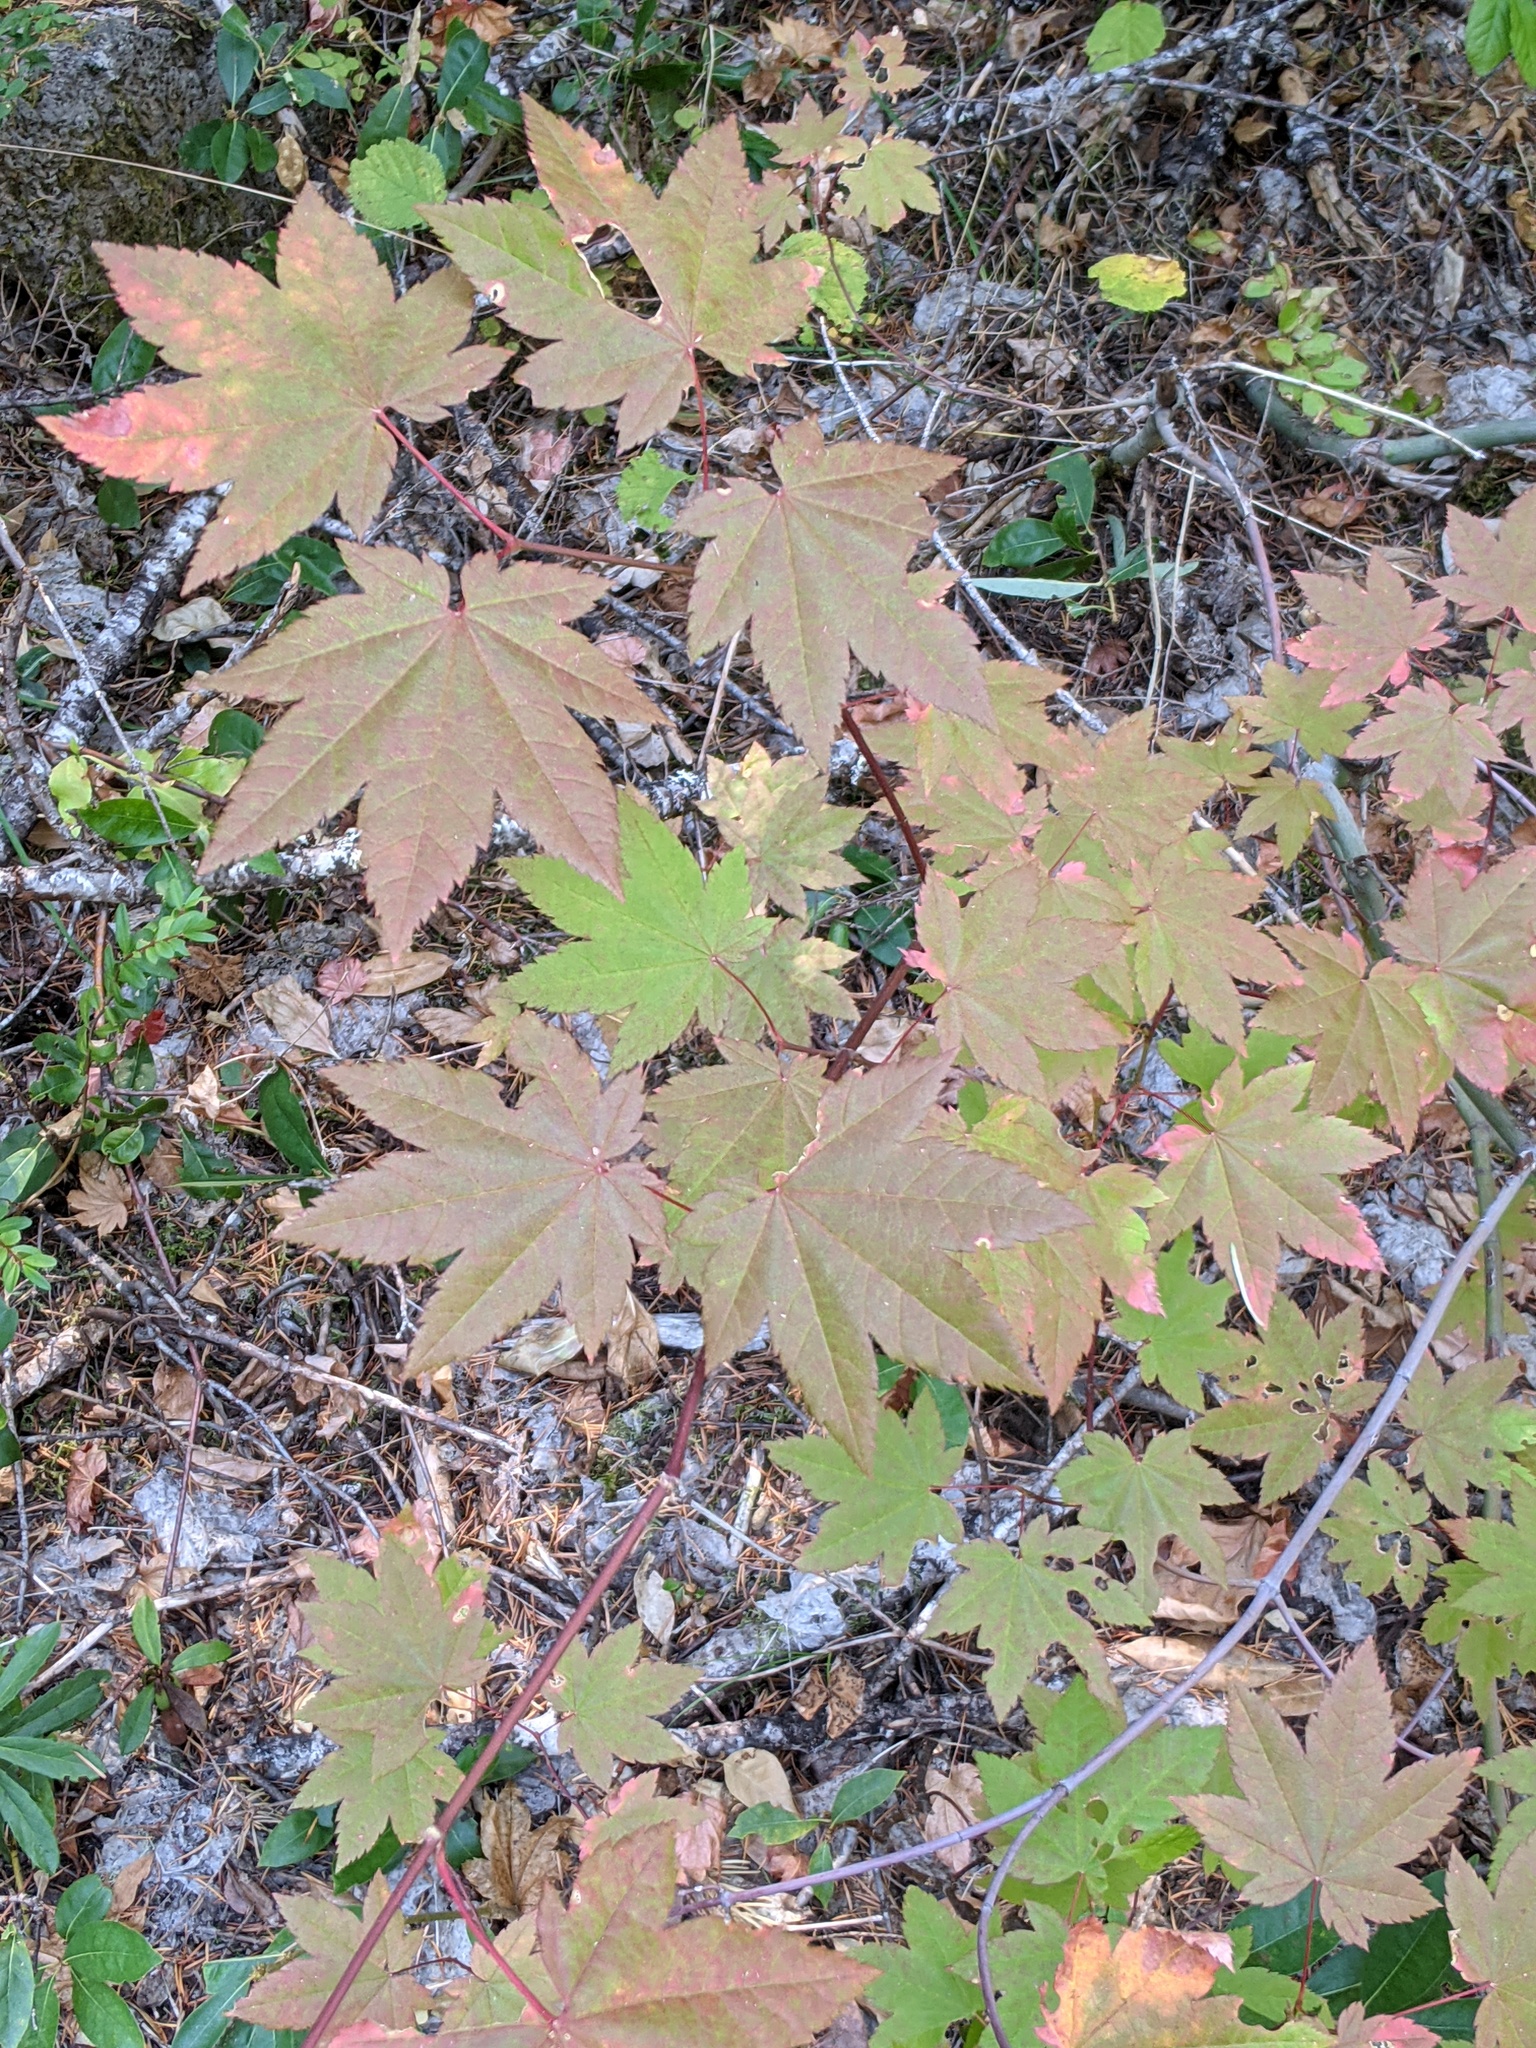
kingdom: Plantae
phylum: Tracheophyta
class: Magnoliopsida
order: Sapindales
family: Sapindaceae
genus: Acer
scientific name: Acer circinatum
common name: Vine maple
